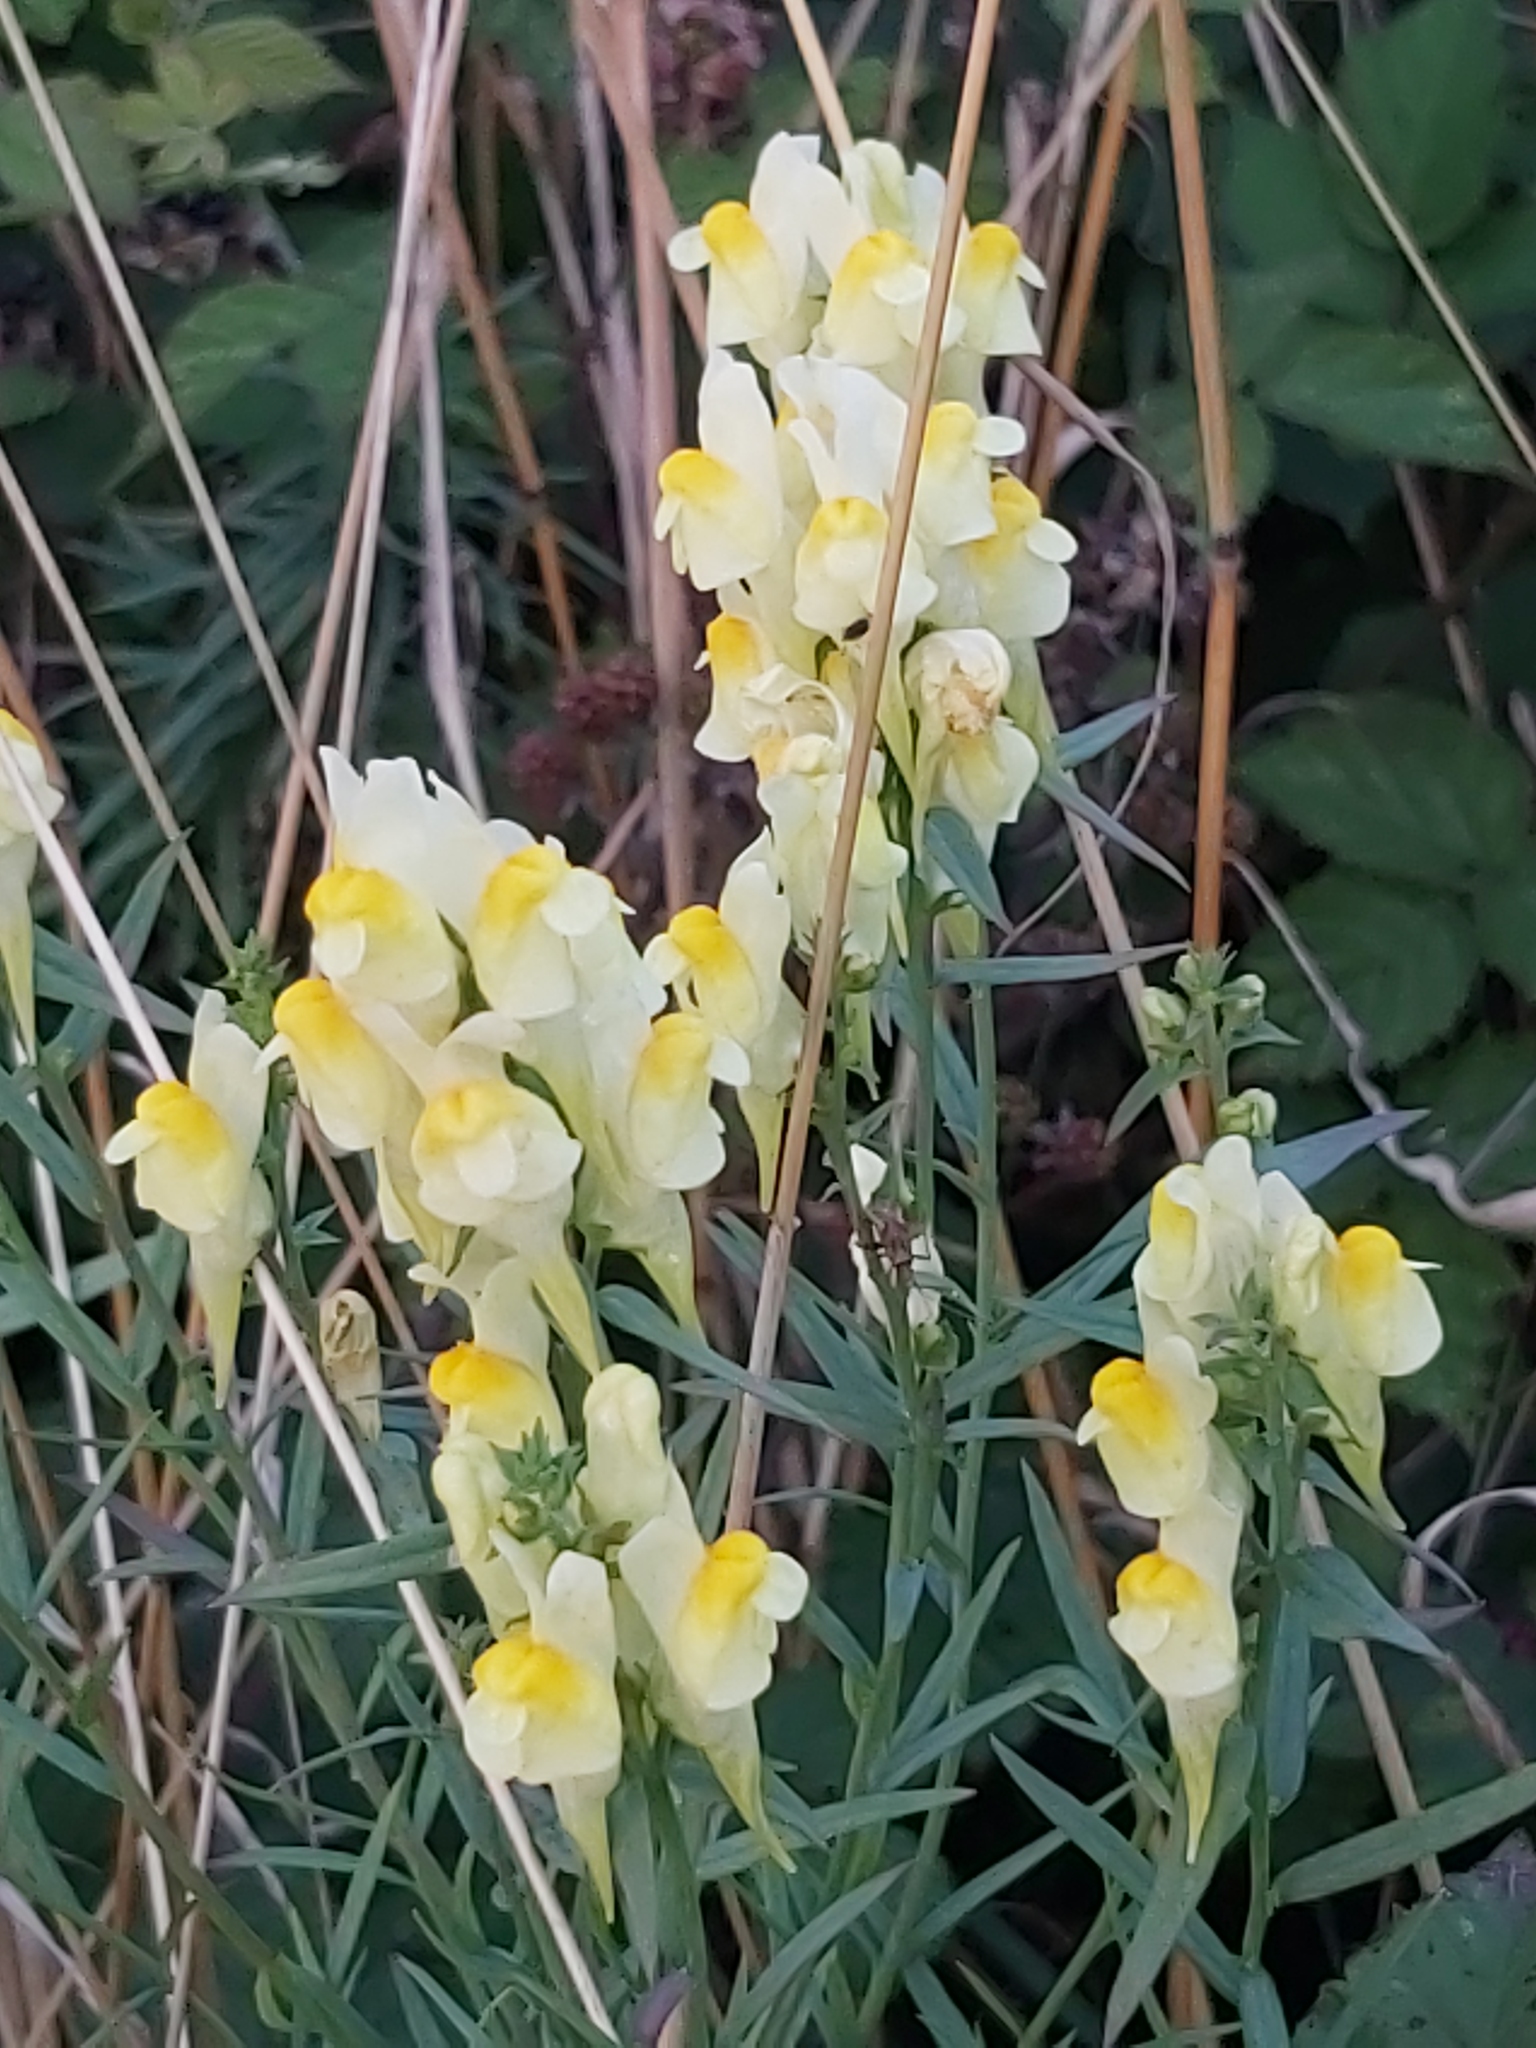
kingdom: Plantae
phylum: Tracheophyta
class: Magnoliopsida
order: Lamiales
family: Plantaginaceae
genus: Linaria
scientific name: Linaria vulgaris
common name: Butter and eggs
